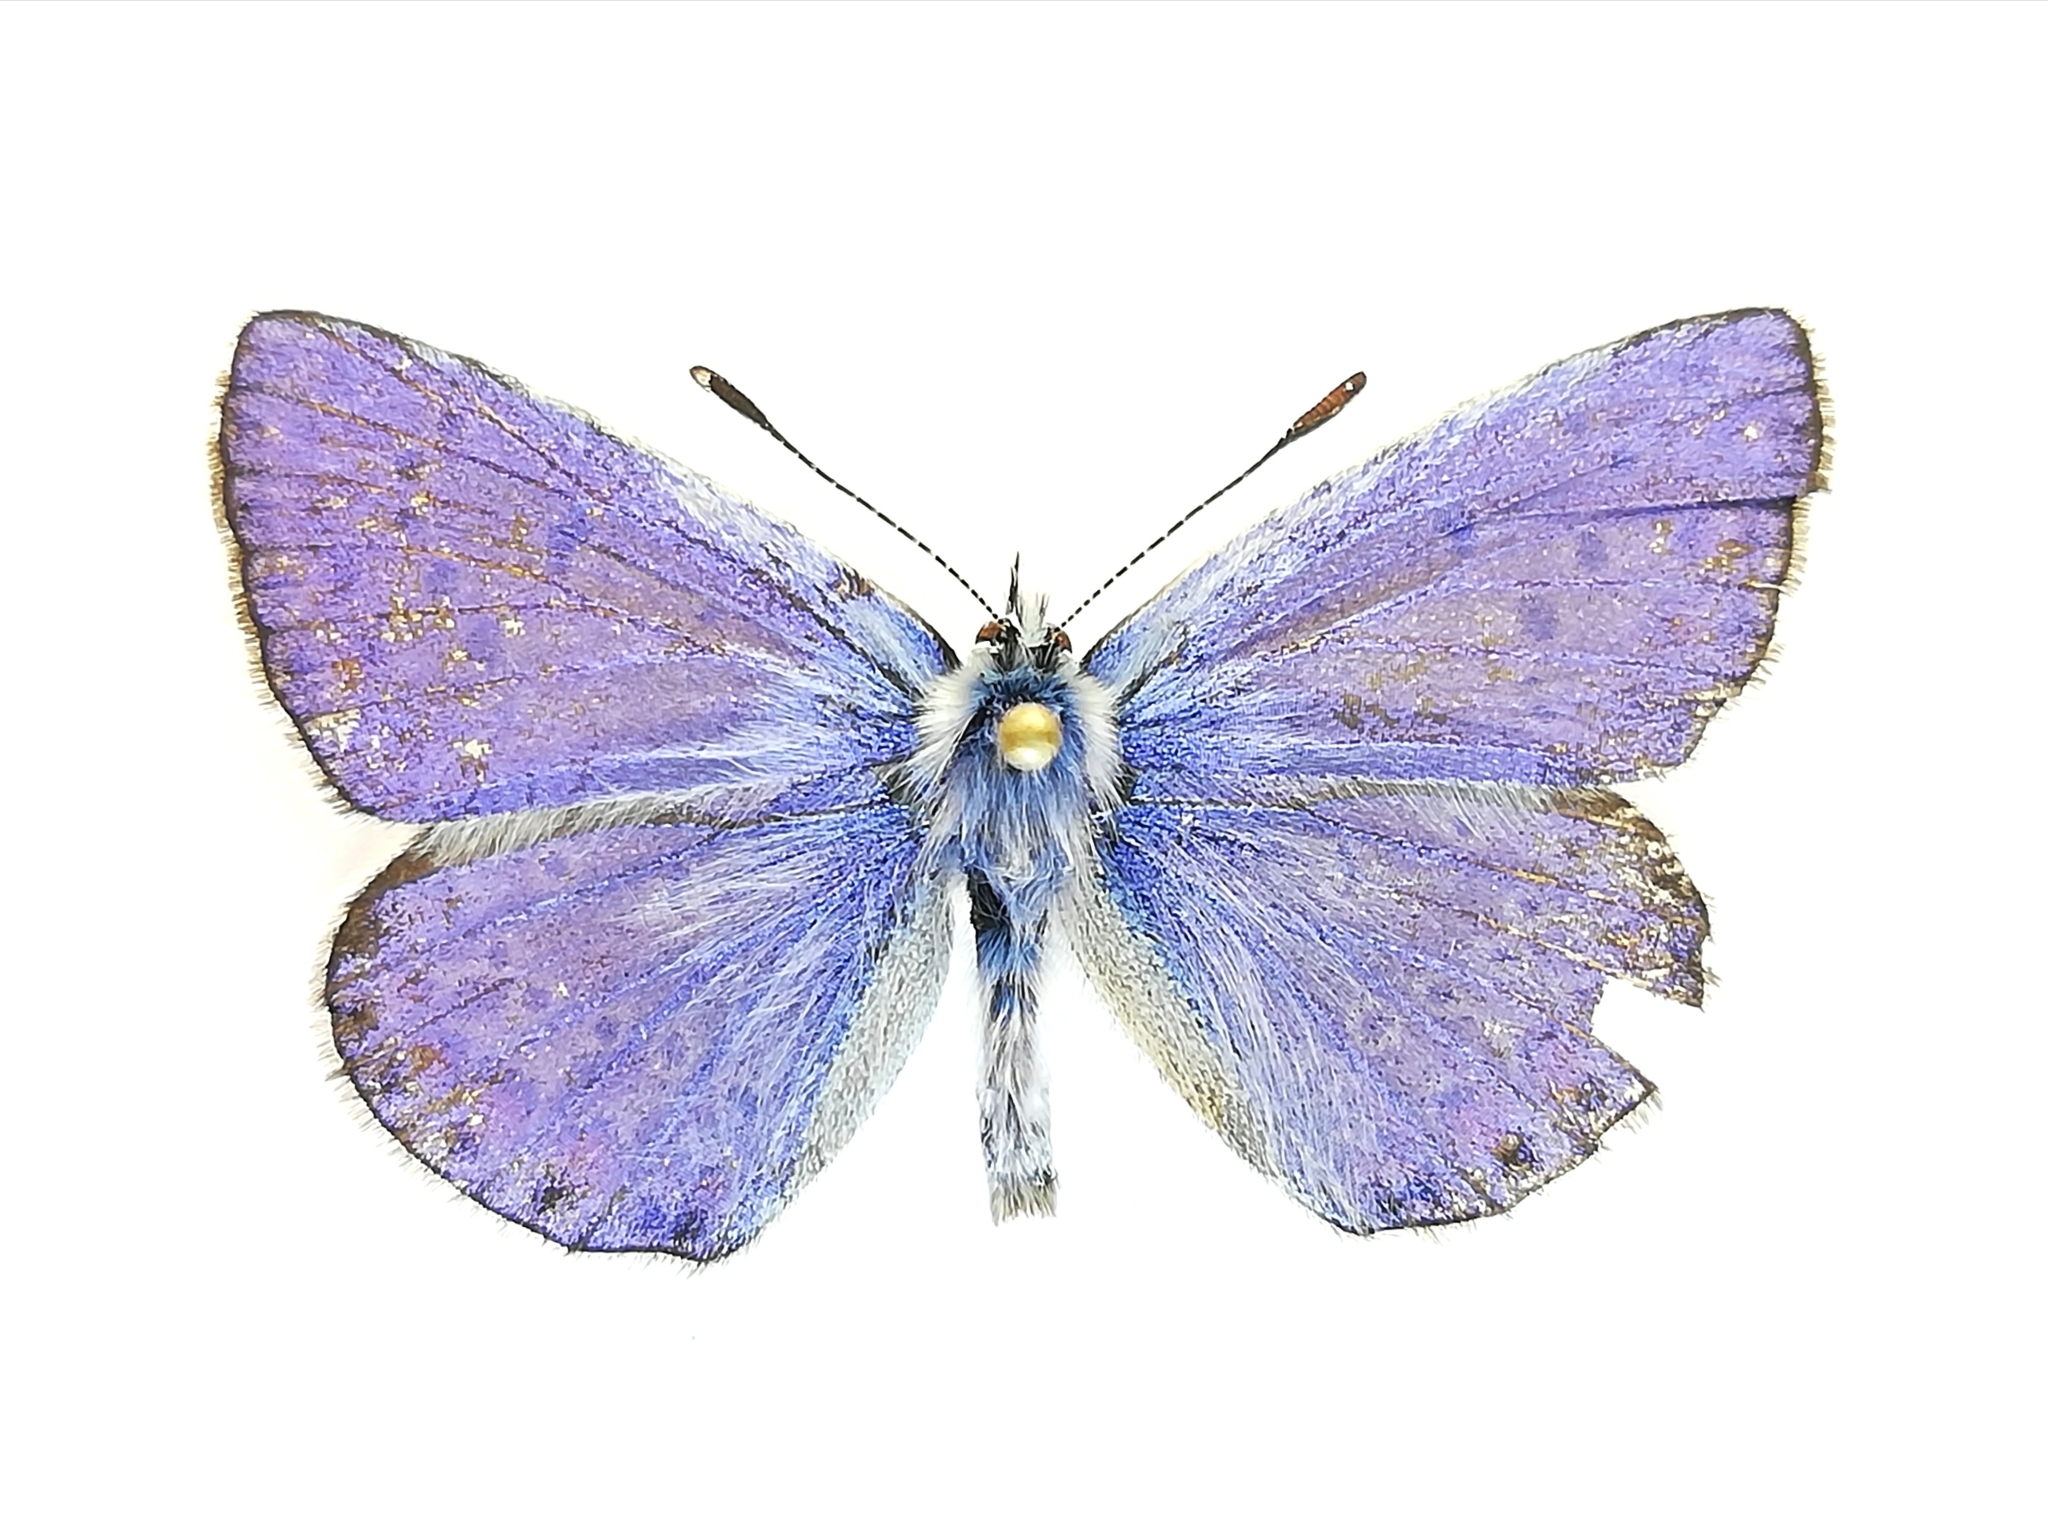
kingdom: Animalia
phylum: Arthropoda
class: Insecta
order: Lepidoptera
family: Lycaenidae
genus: Polyommatus
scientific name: Polyommatus icarus
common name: Common blue
